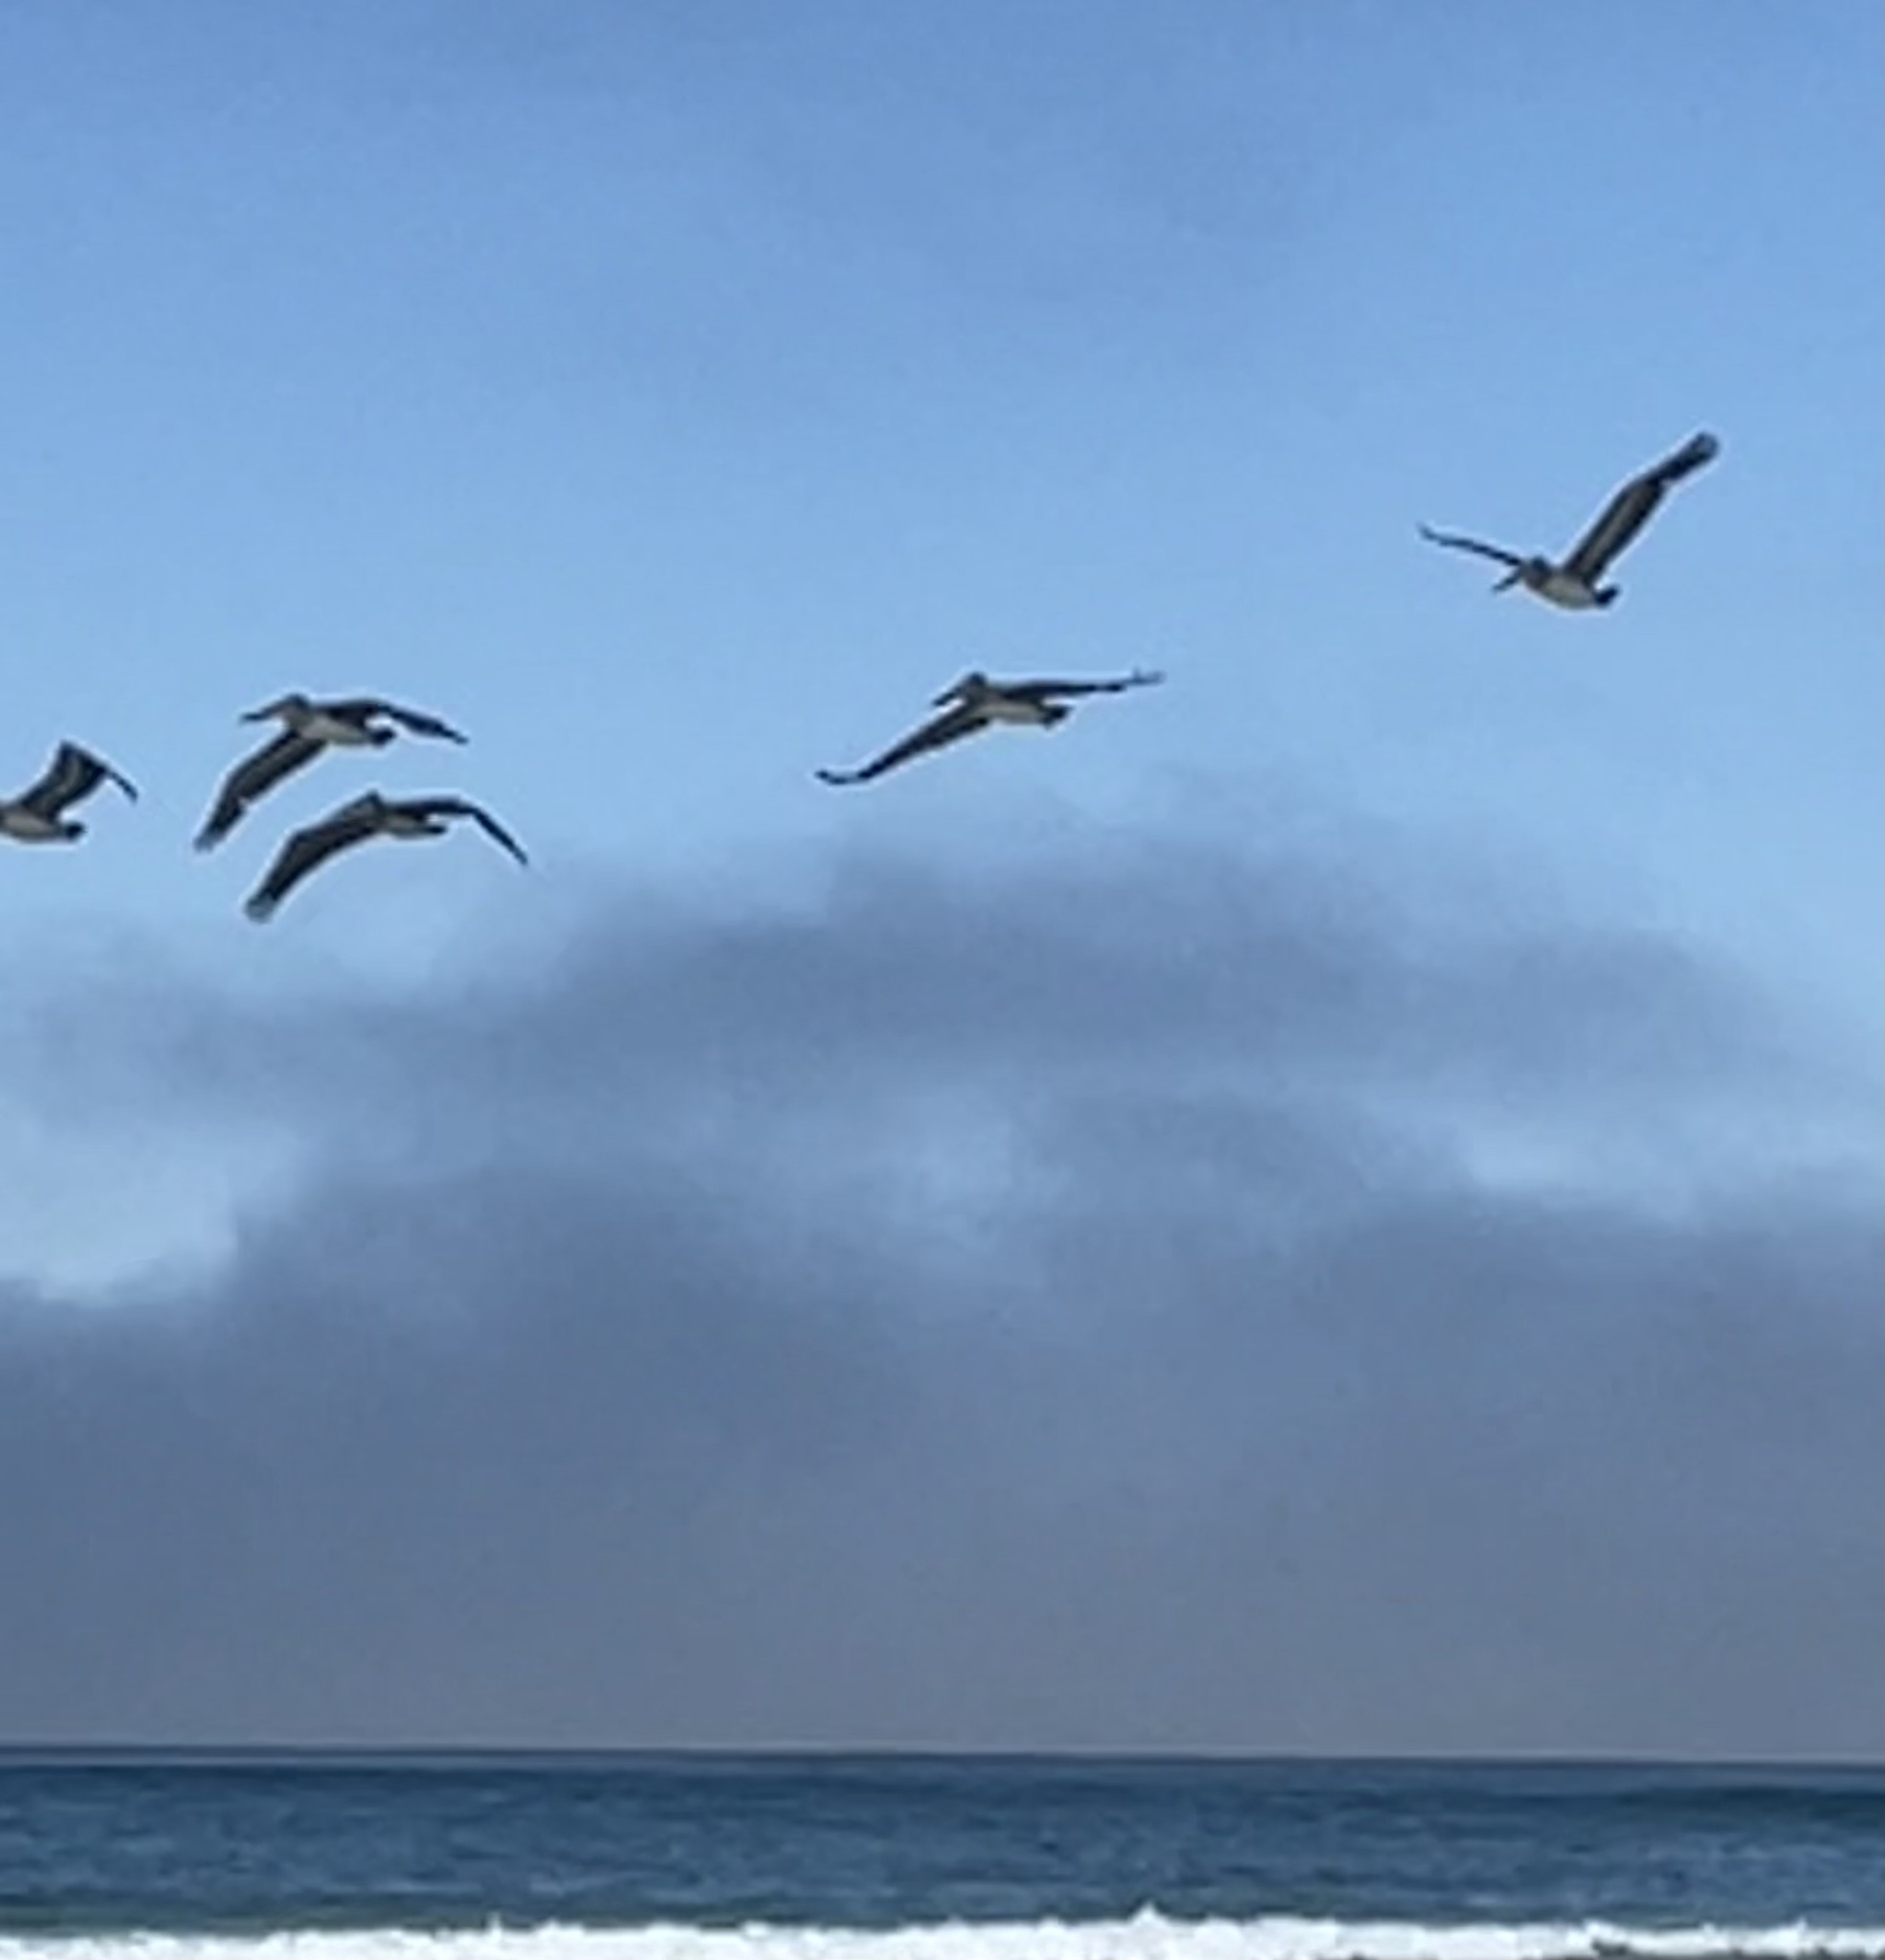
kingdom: Animalia
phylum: Chordata
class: Aves
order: Pelecaniformes
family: Pelecanidae
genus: Pelecanus
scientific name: Pelecanus occidentalis
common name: Brown pelican
